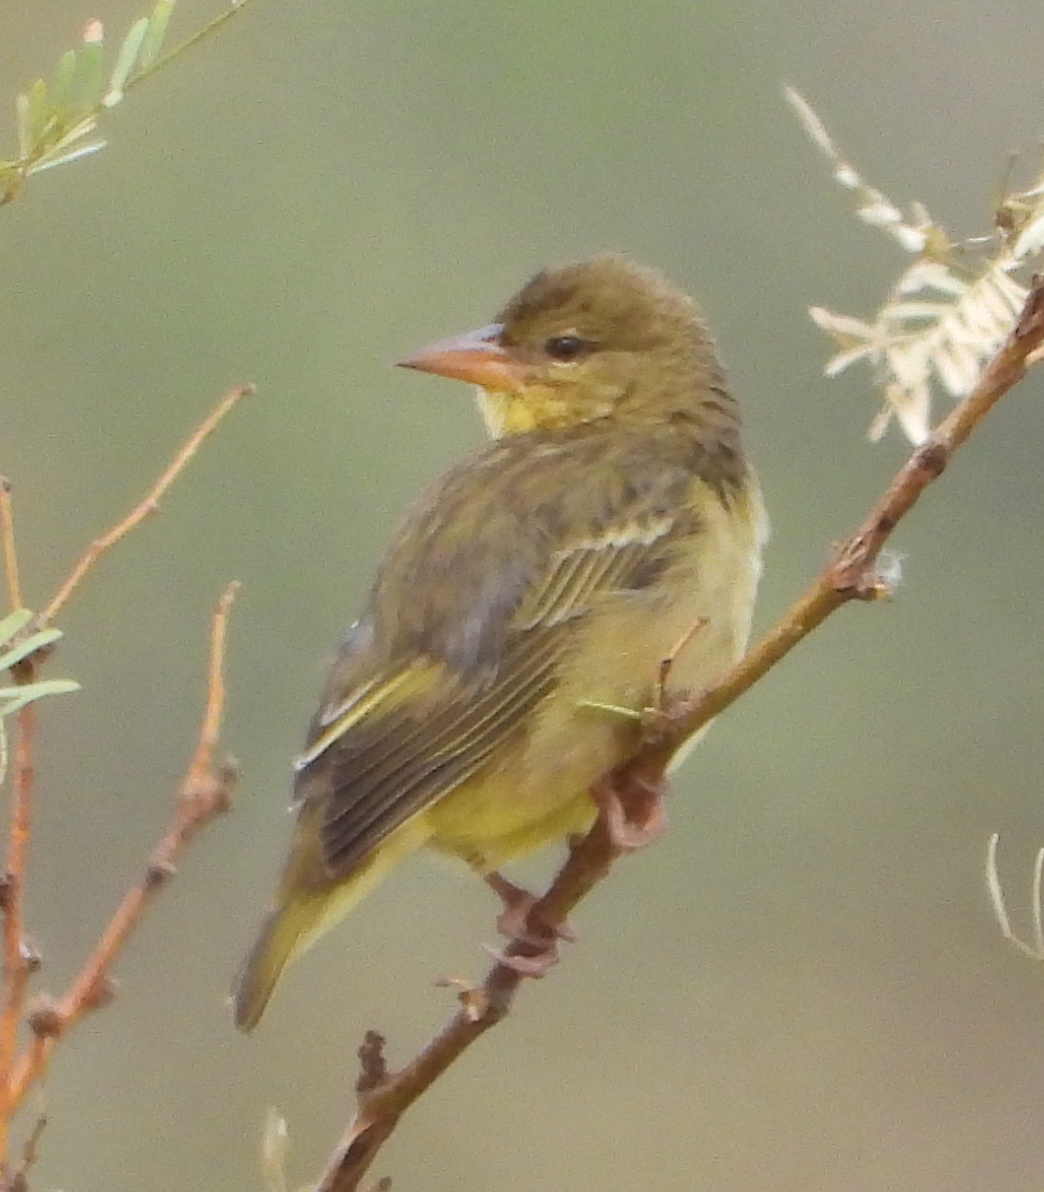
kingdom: Animalia
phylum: Chordata
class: Aves
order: Passeriformes
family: Ploceidae
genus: Ploceus
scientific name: Ploceus capensis
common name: Cape weaver
